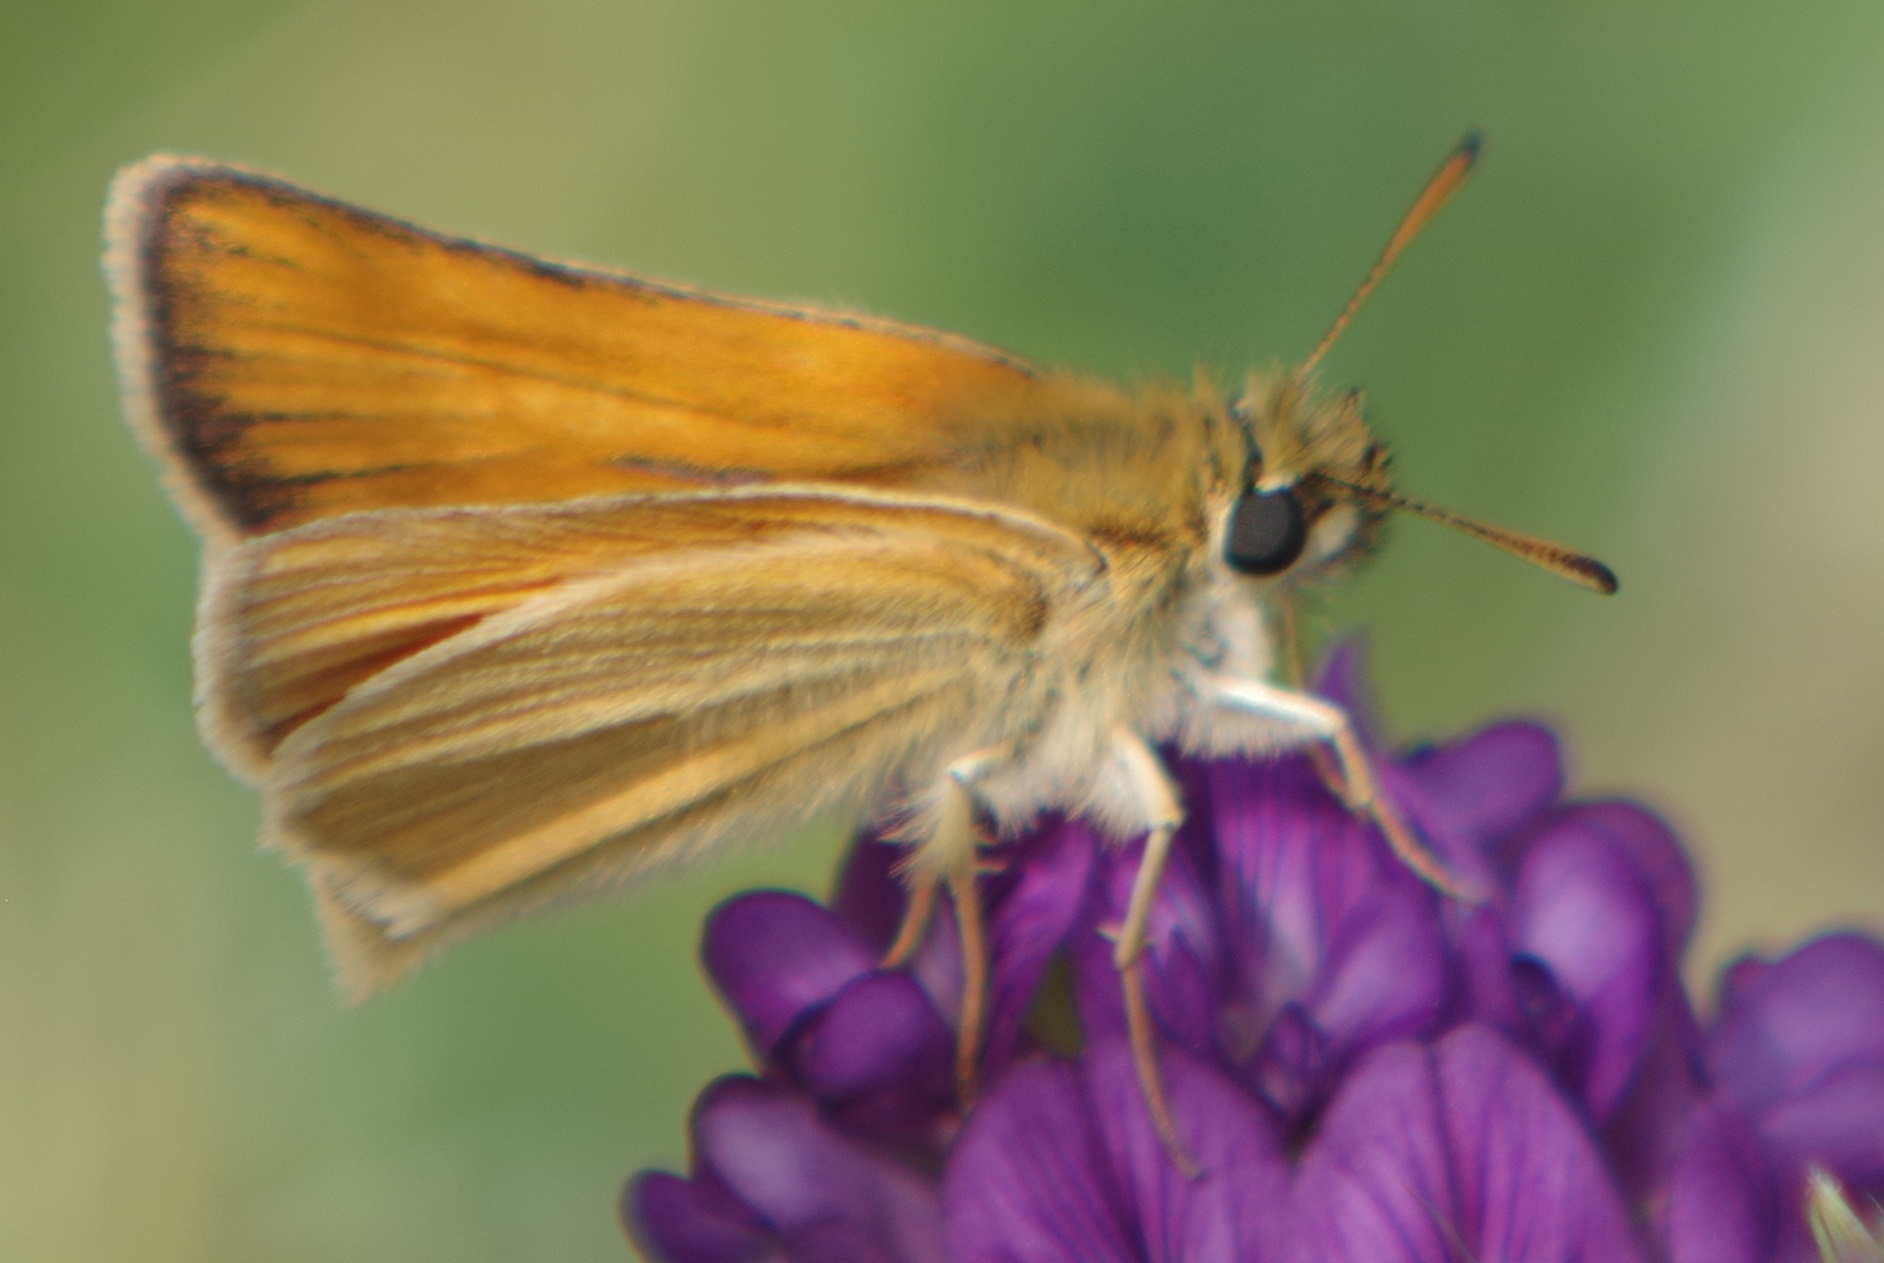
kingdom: Animalia
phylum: Arthropoda
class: Insecta
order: Lepidoptera
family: Hesperiidae
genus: Thymelicus
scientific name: Thymelicus lineola
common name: Essex skipper
